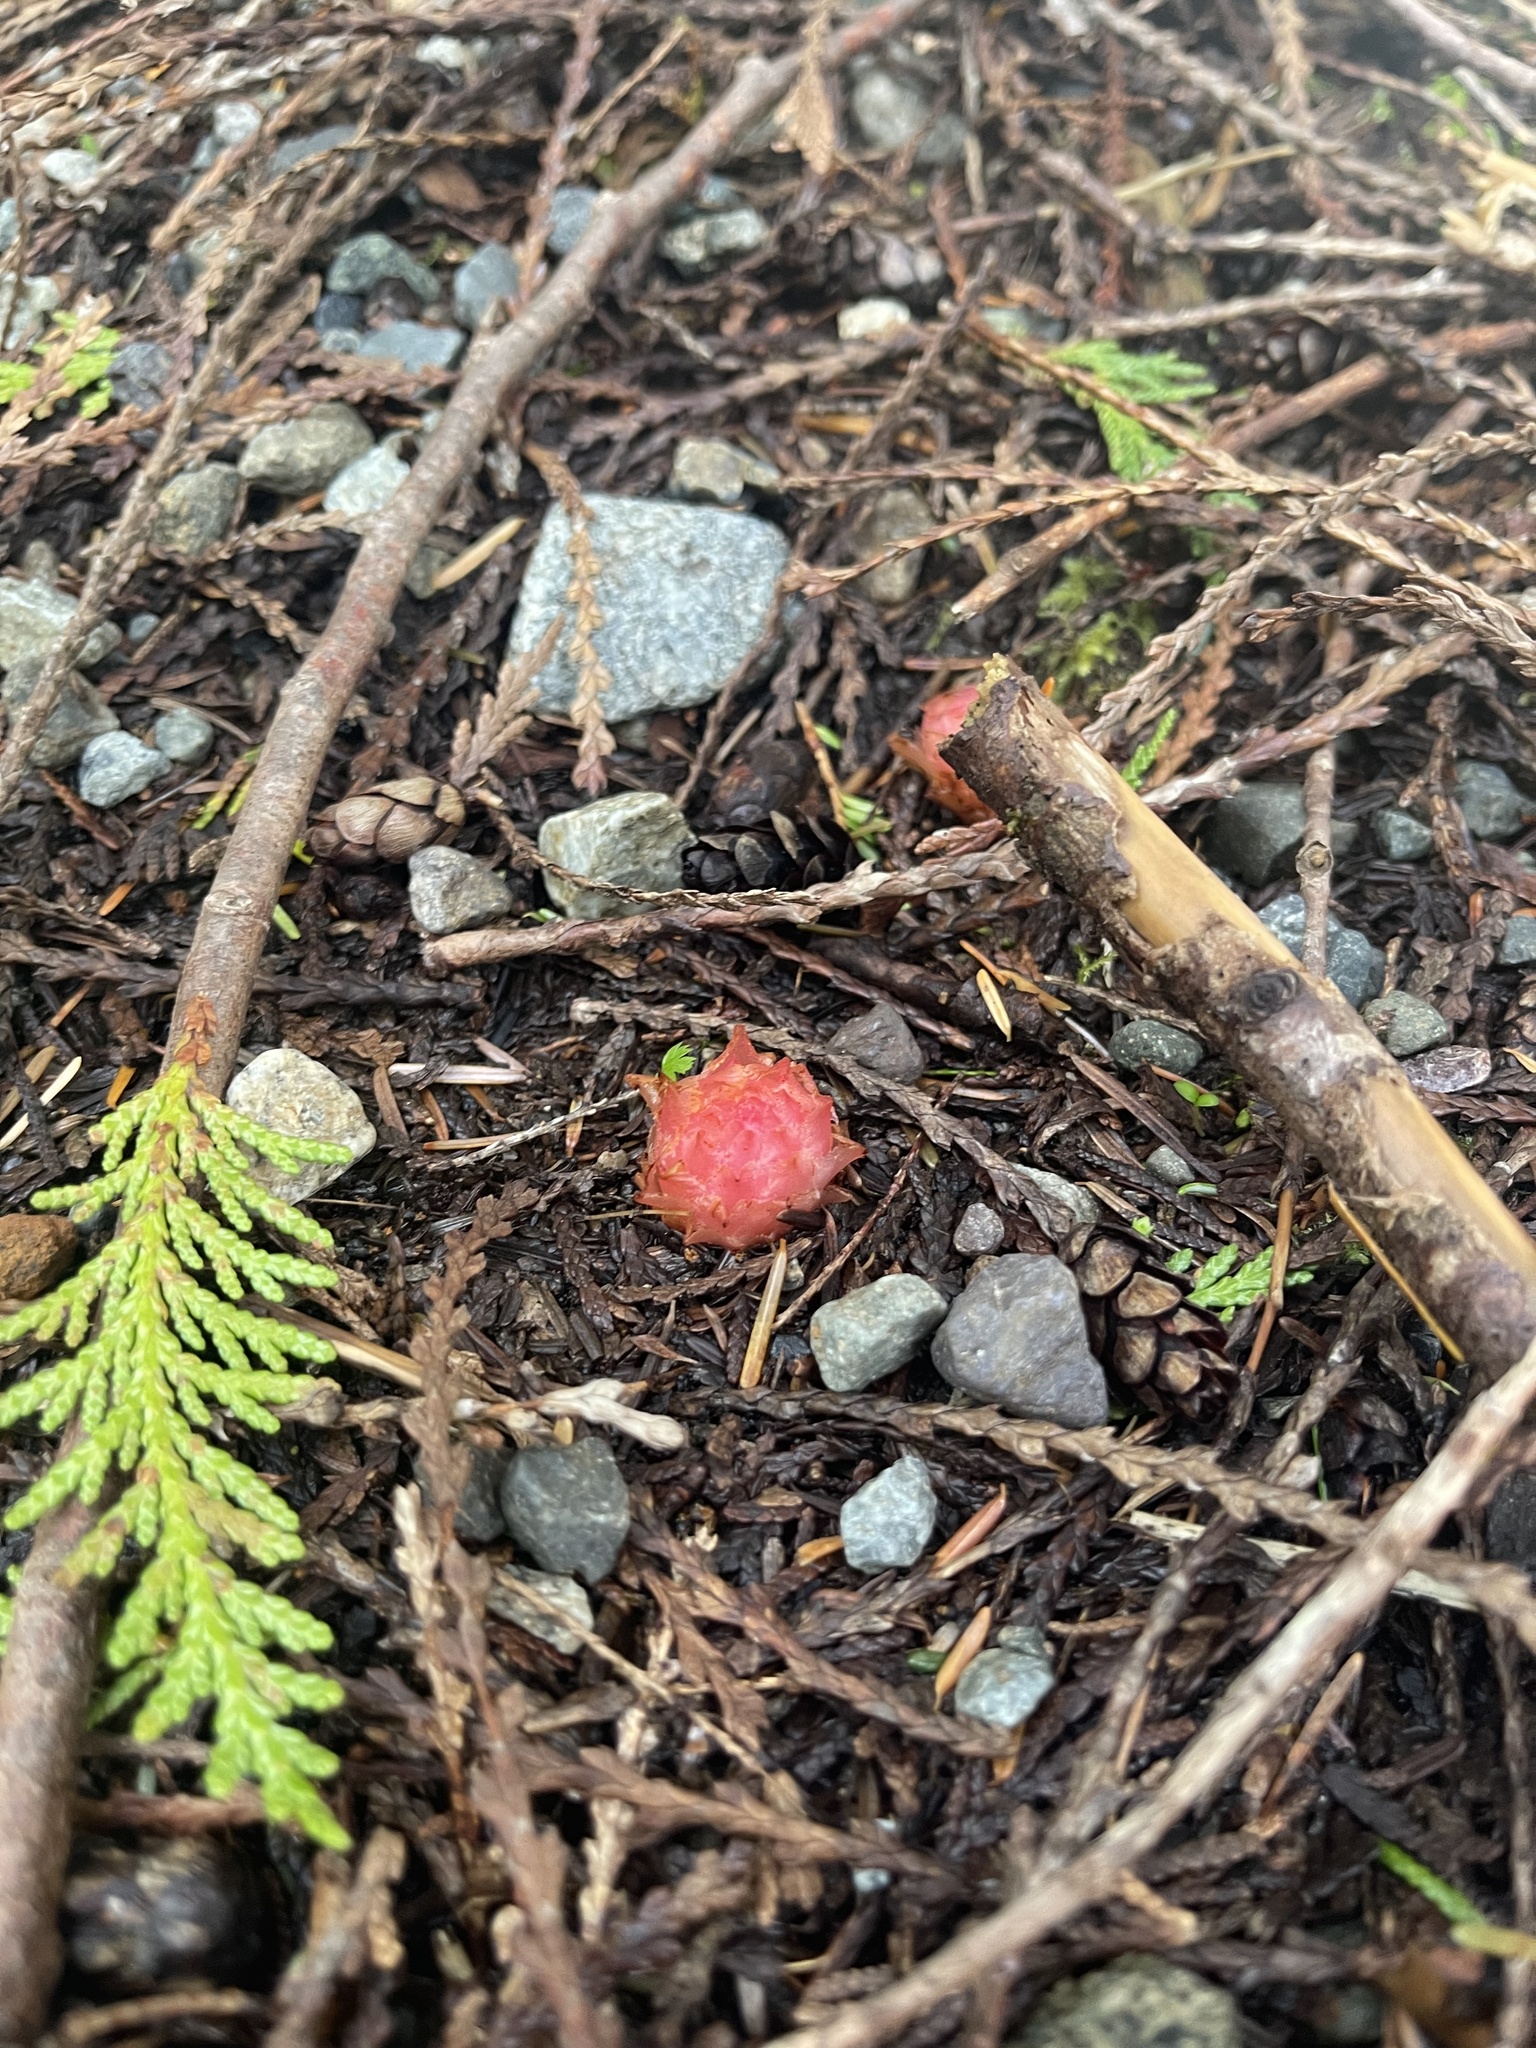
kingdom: Plantae
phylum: Tracheophyta
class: Magnoliopsida
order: Ericales
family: Ericaceae
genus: Hemitomes
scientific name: Hemitomes congestum
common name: Cone plant
